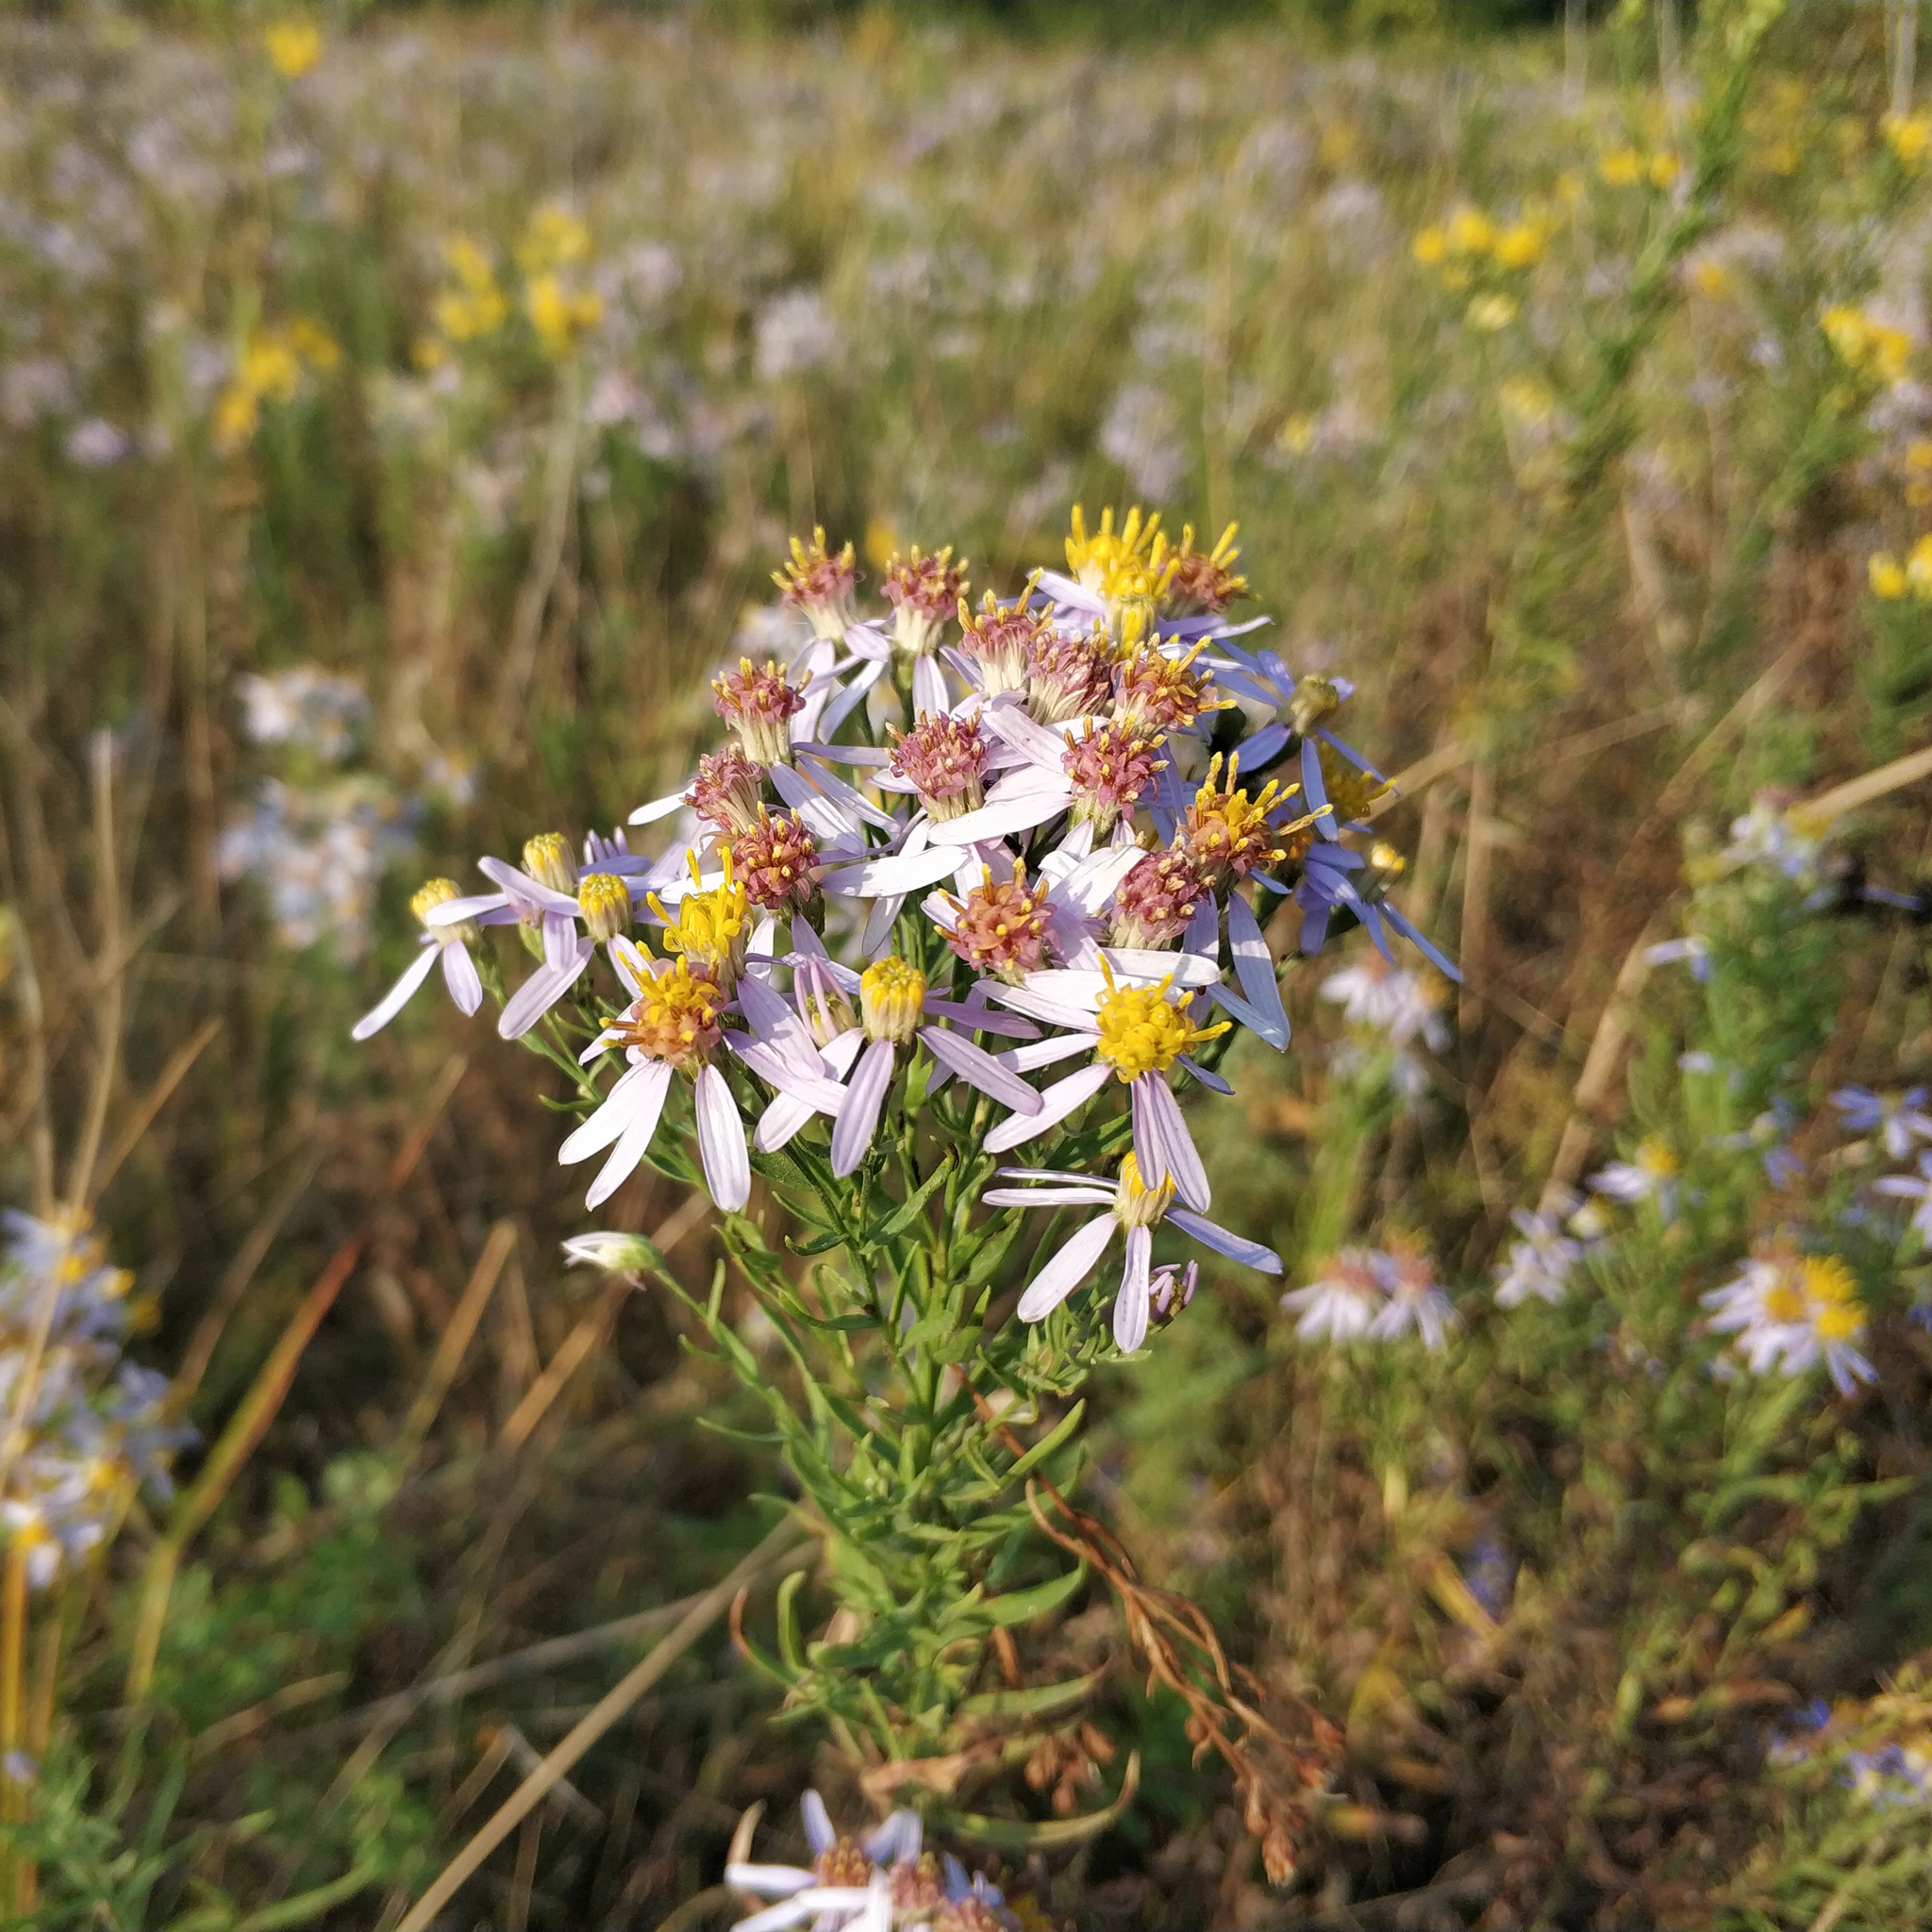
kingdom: Plantae
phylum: Tracheophyta
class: Magnoliopsida
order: Asterales
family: Asteraceae
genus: Galatella
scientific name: Galatella sedifolia
